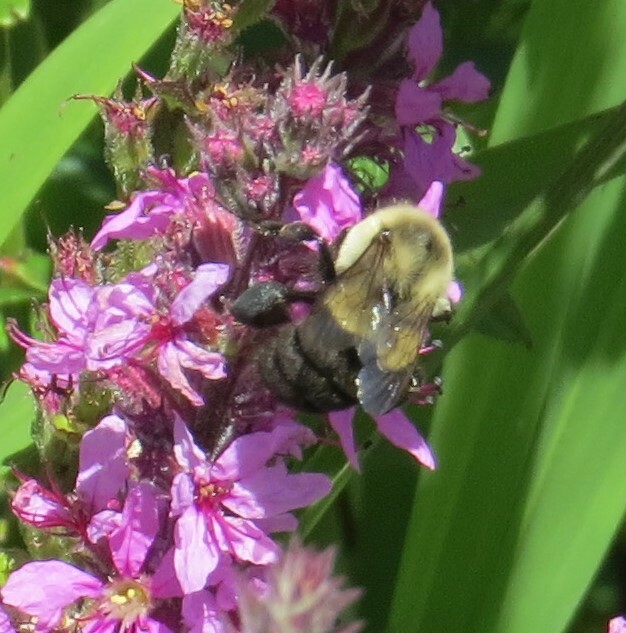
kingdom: Animalia
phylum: Arthropoda
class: Insecta
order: Hymenoptera
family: Apidae
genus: Bombus
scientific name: Bombus impatiens
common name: Common eastern bumble bee
